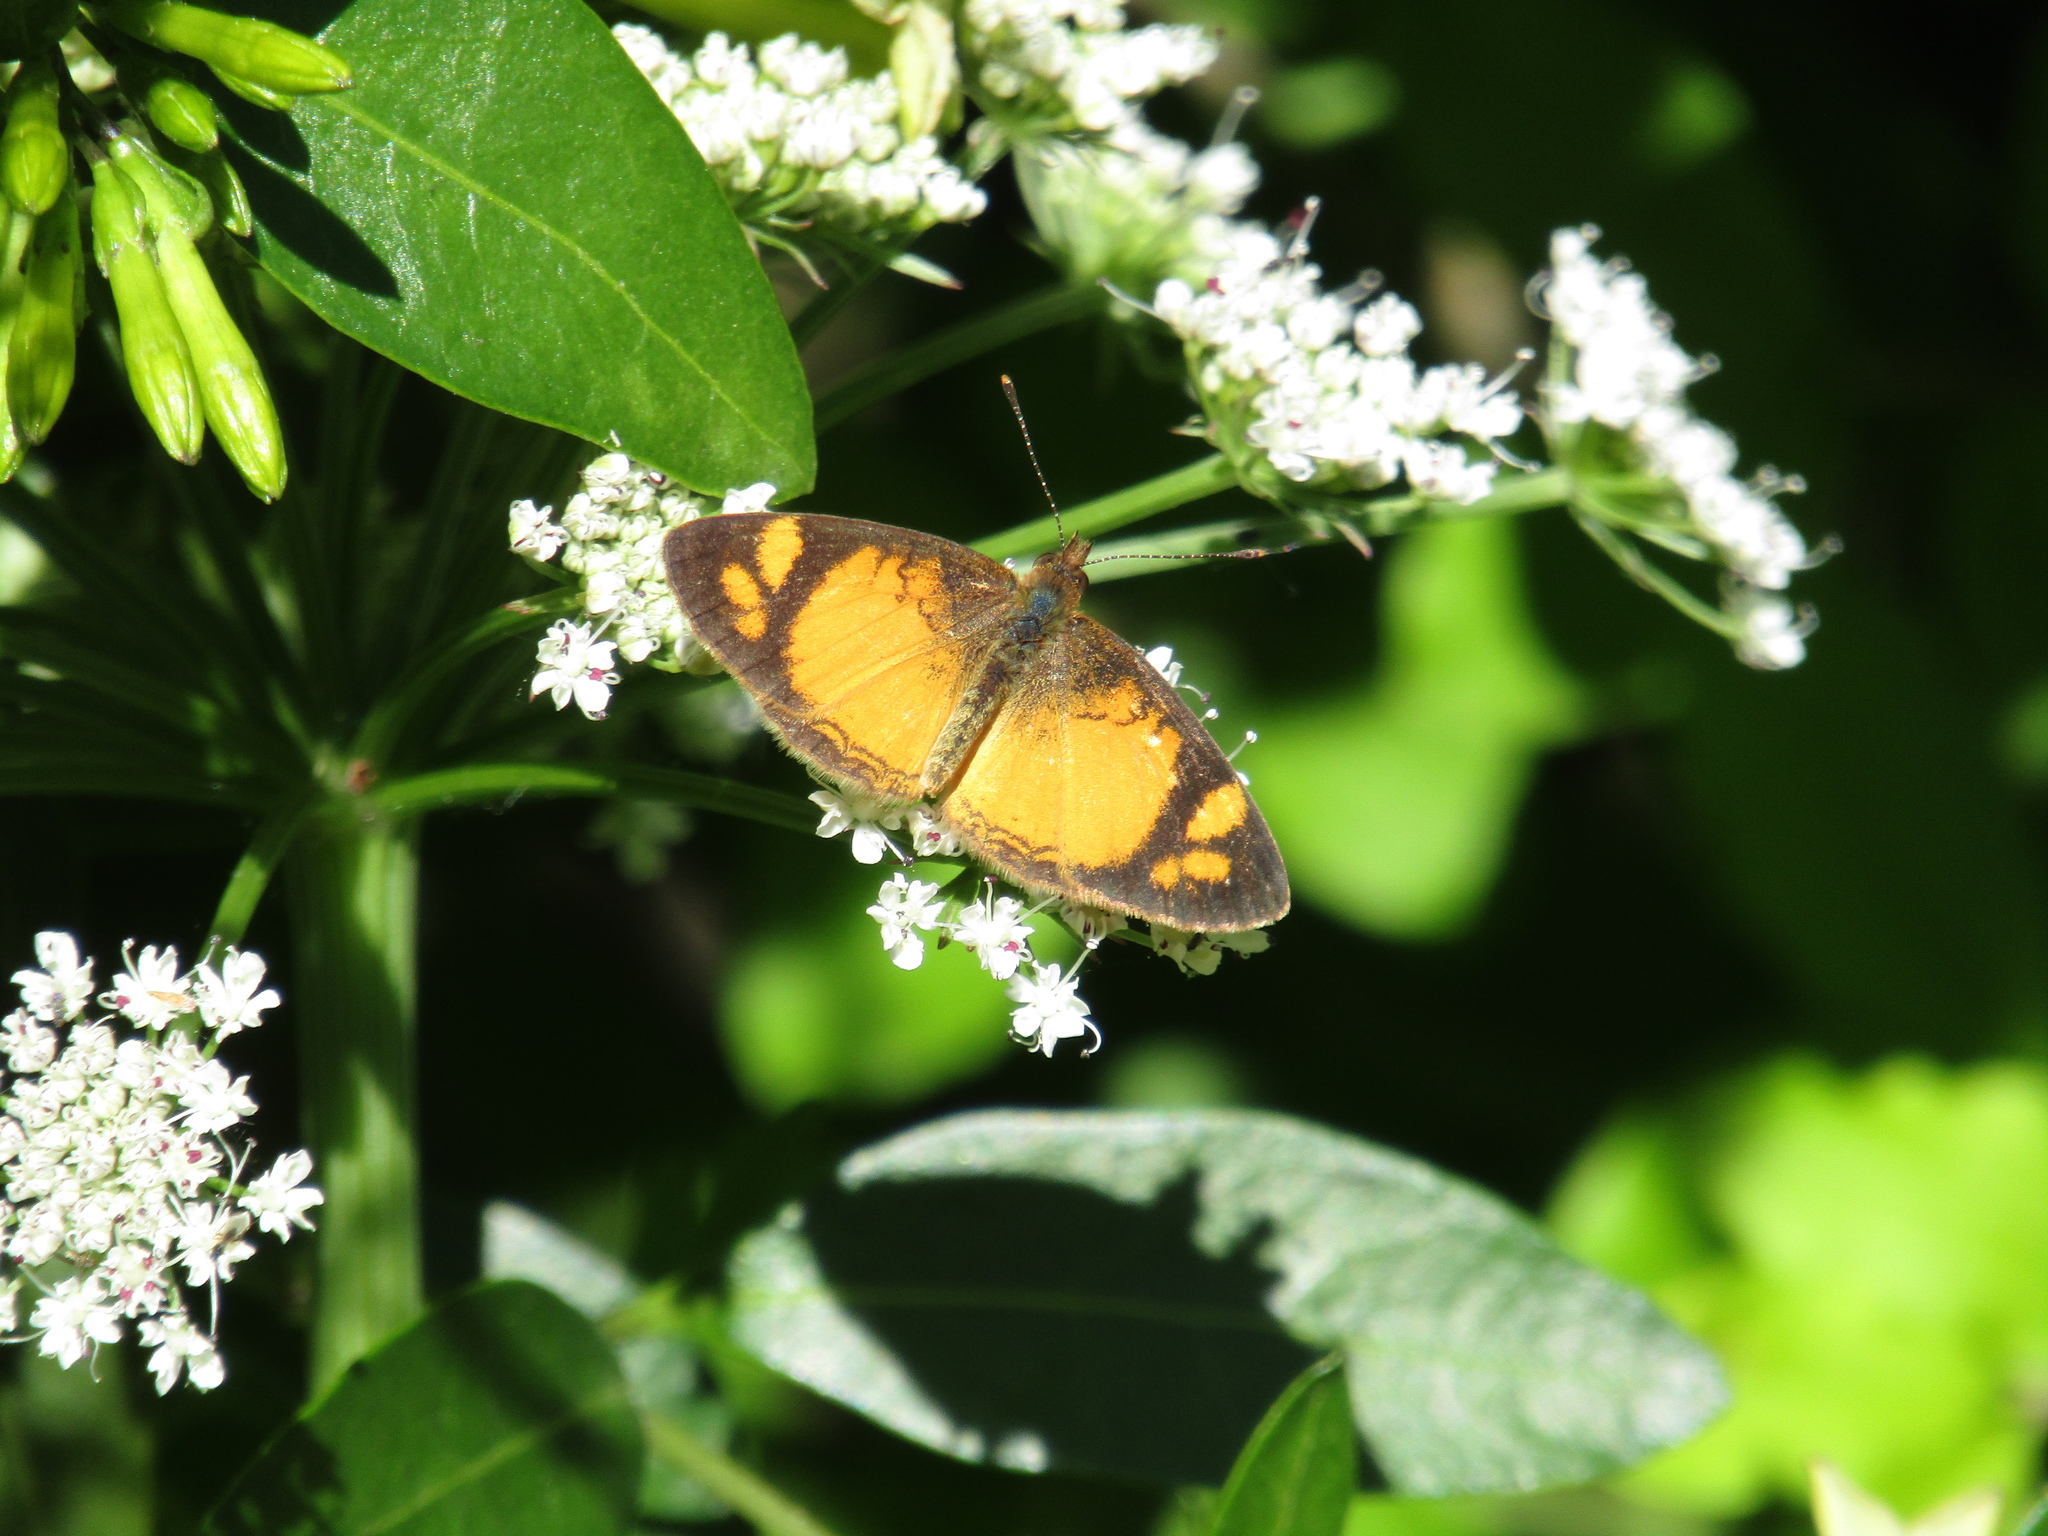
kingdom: Animalia
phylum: Arthropoda
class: Insecta
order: Lepidoptera
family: Nymphalidae
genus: Tegosa
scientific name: Tegosa claudina
